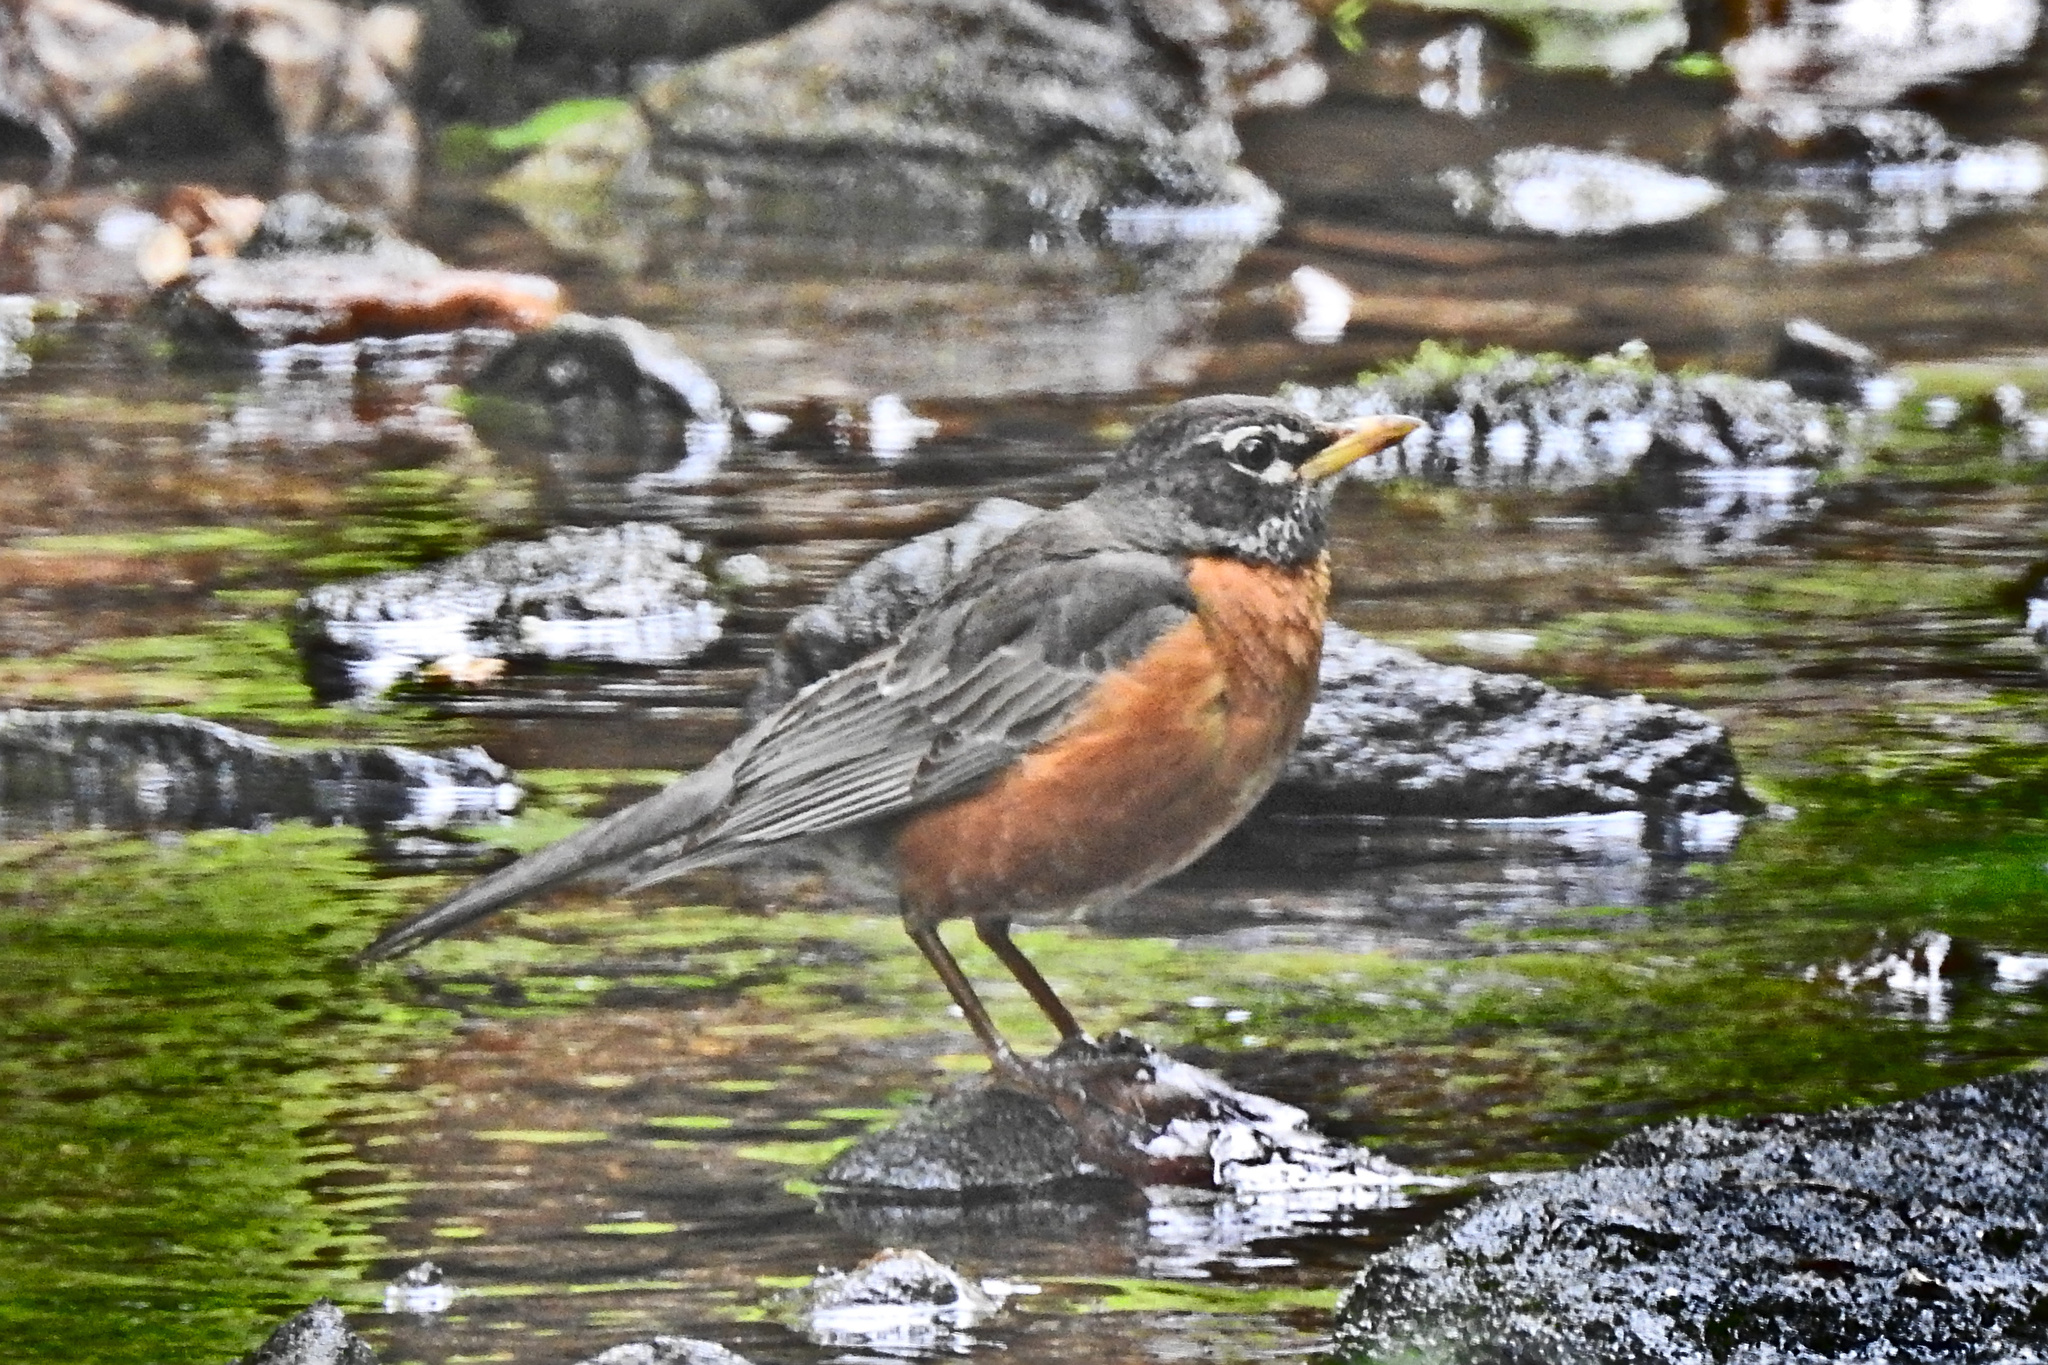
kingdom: Animalia
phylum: Chordata
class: Aves
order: Passeriformes
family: Turdidae
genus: Turdus
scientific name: Turdus migratorius
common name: American robin
